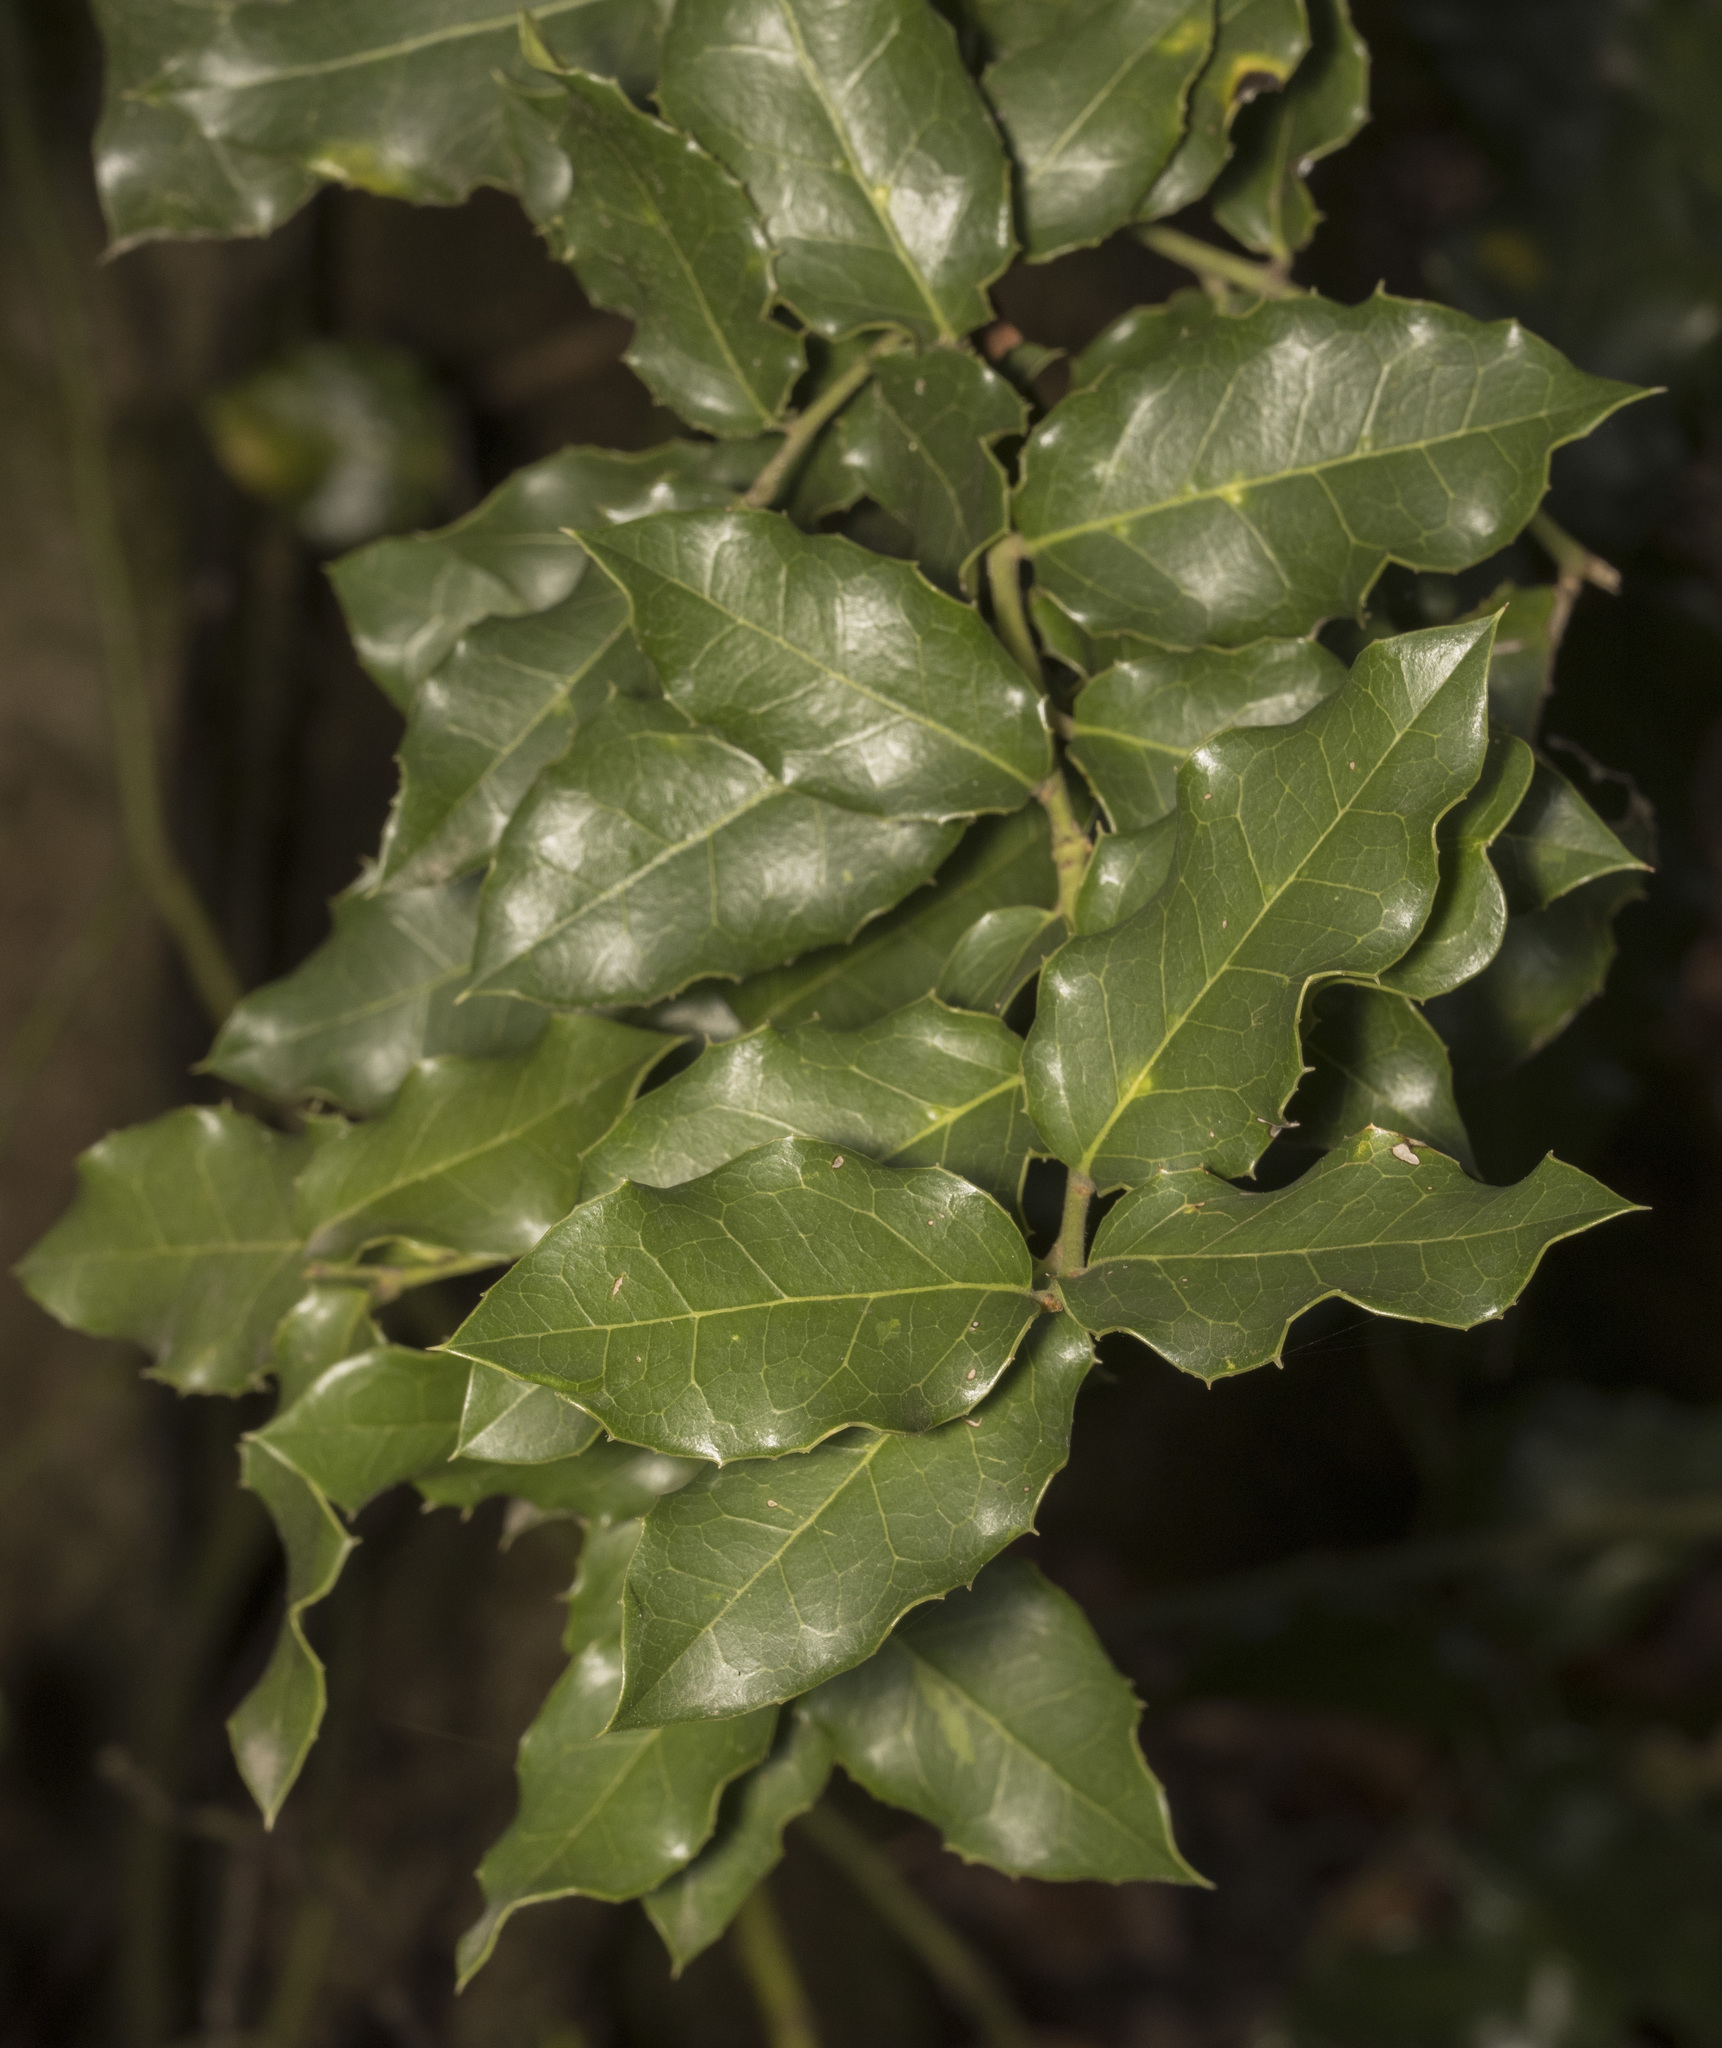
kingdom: Plantae
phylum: Tracheophyta
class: Magnoliopsida
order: Cardiopteridales
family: Cardiopteridaceae
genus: Citronella
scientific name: Citronella mucronata
